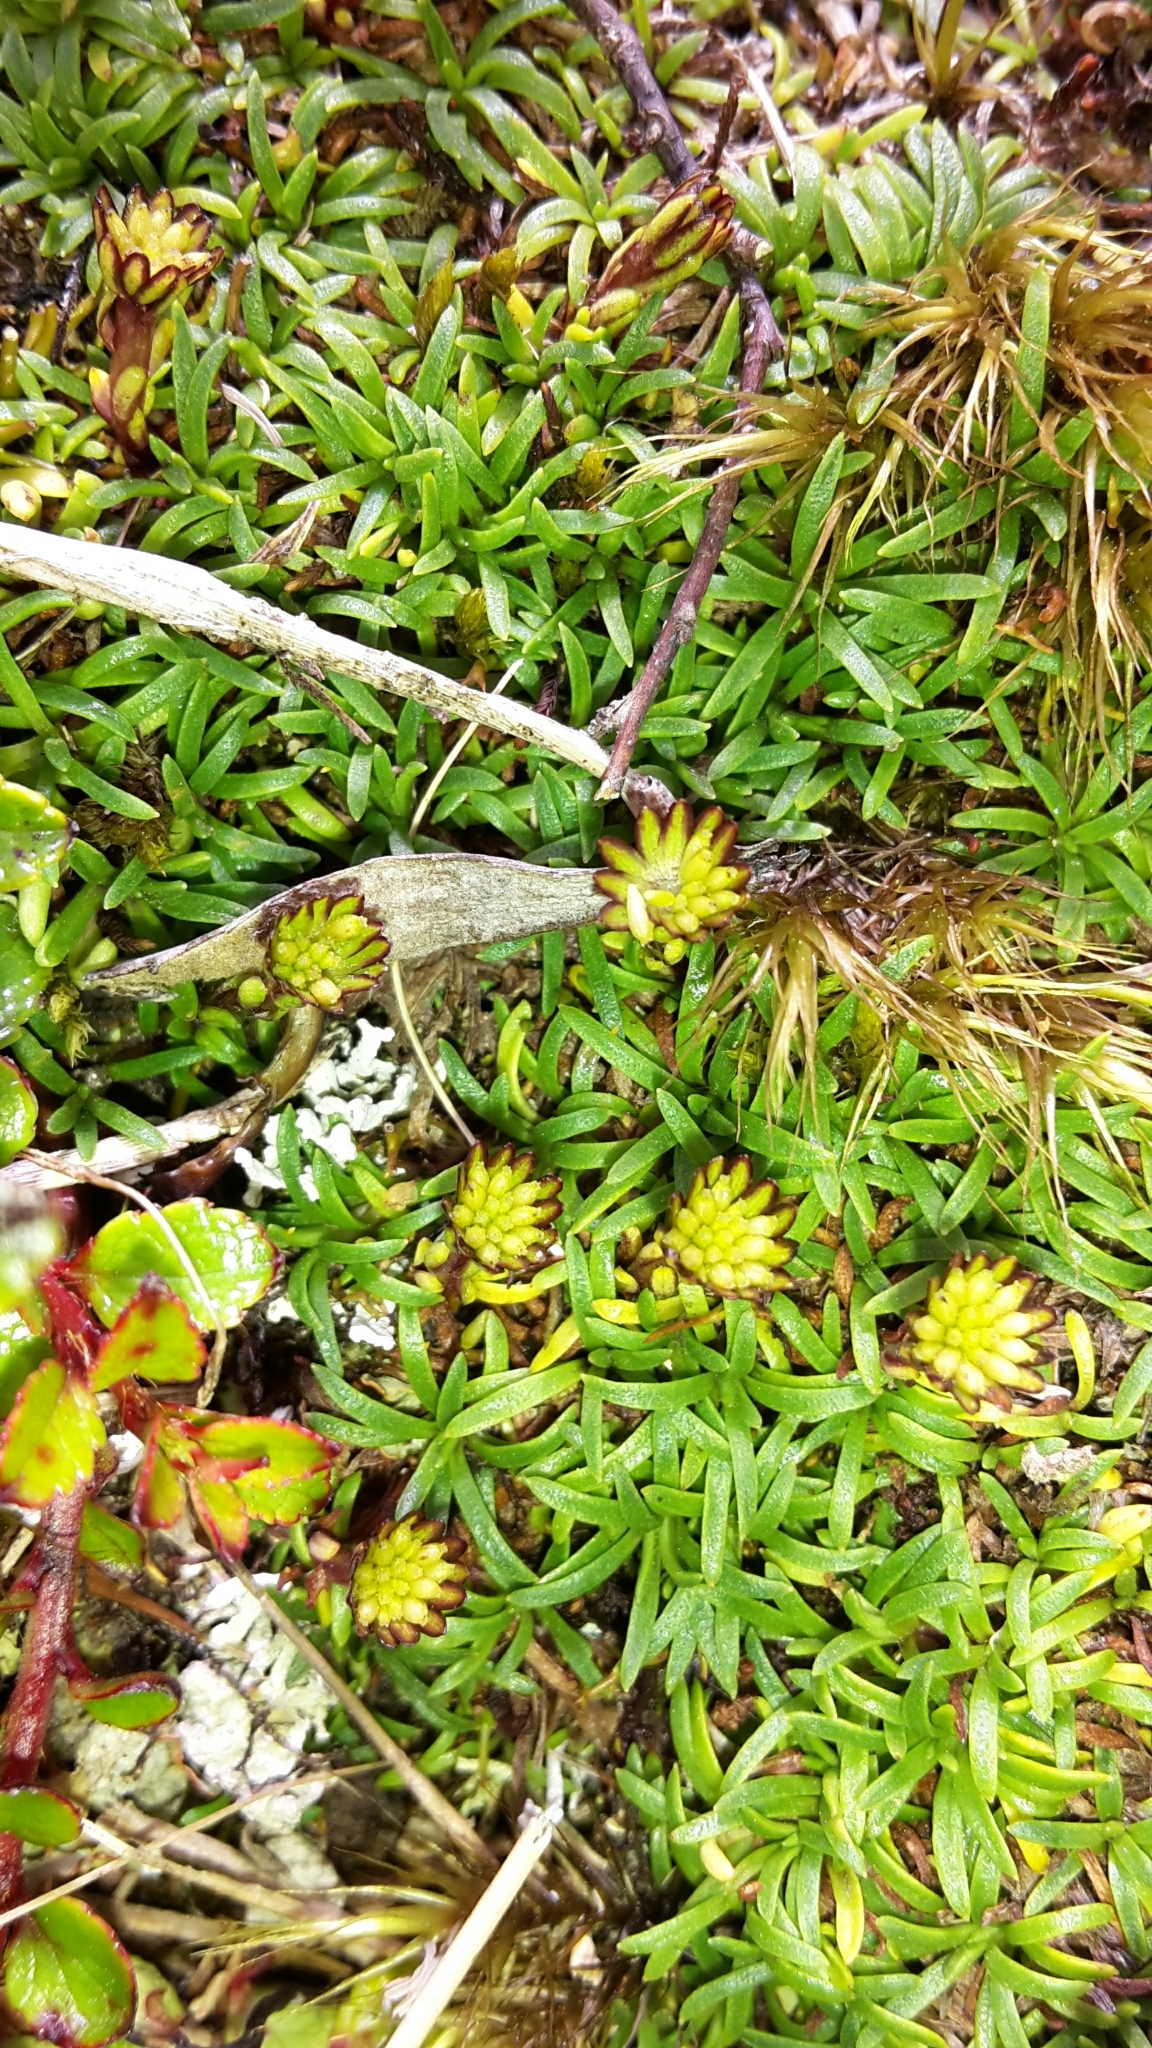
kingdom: Plantae
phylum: Tracheophyta
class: Magnoliopsida
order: Asterales
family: Asteraceae
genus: Abrotanella
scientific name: Abrotanella pusilla
